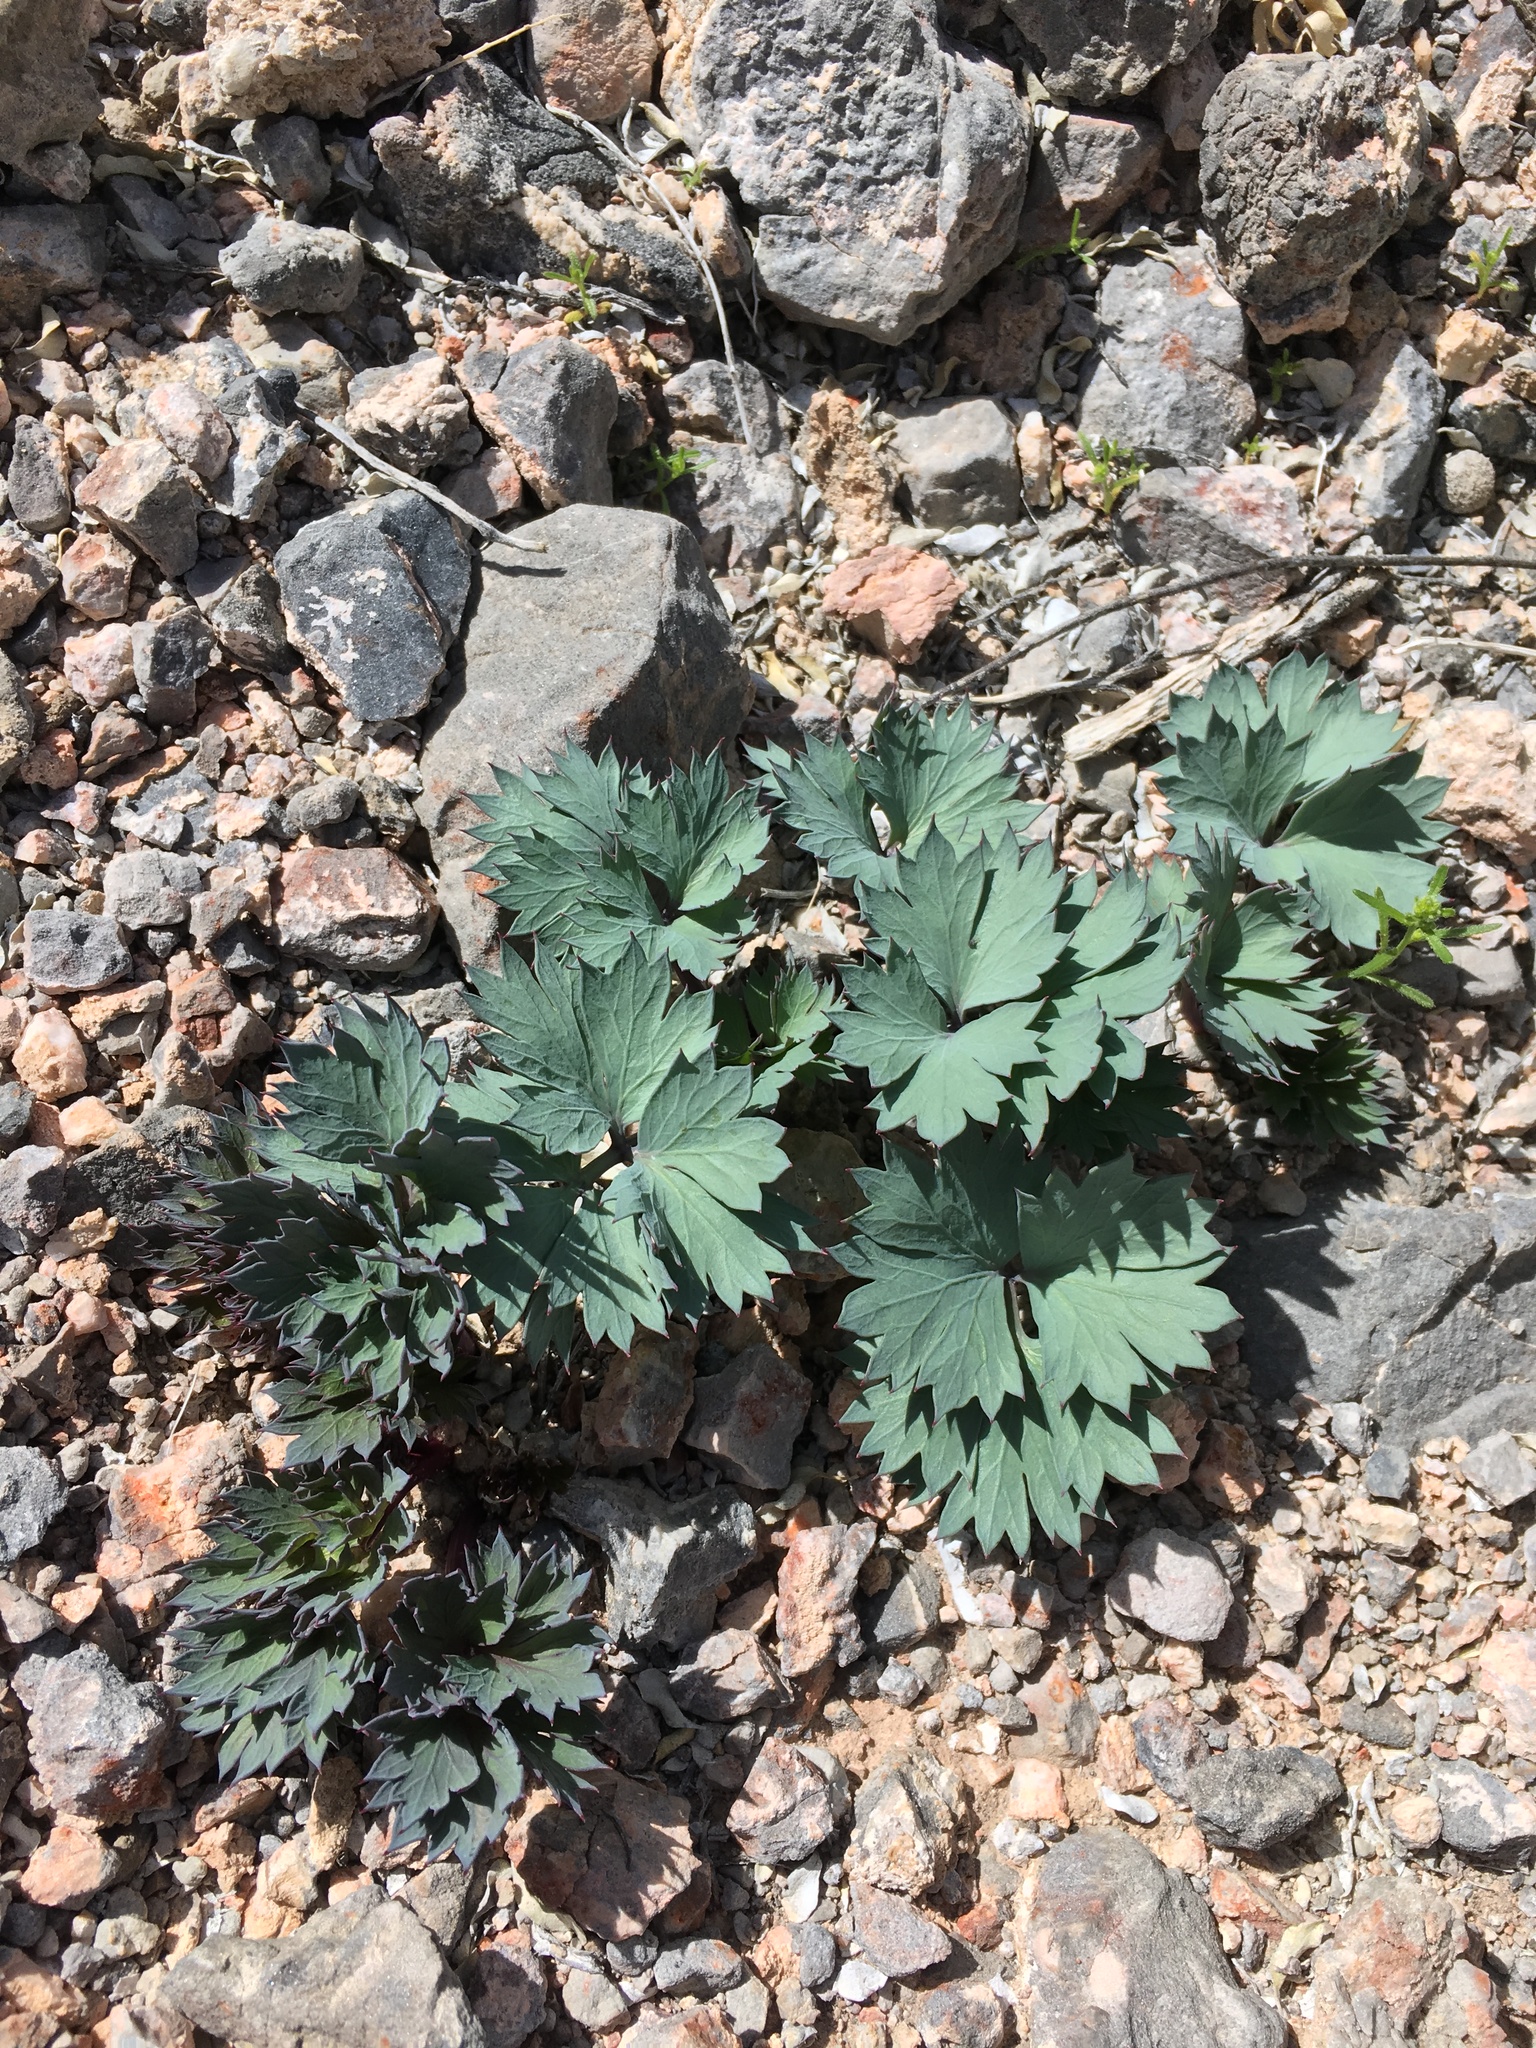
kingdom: Plantae
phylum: Tracheophyta
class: Magnoliopsida
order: Apiales
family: Apiaceae
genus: Cymopterus
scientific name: Cymopterus gilmanii
